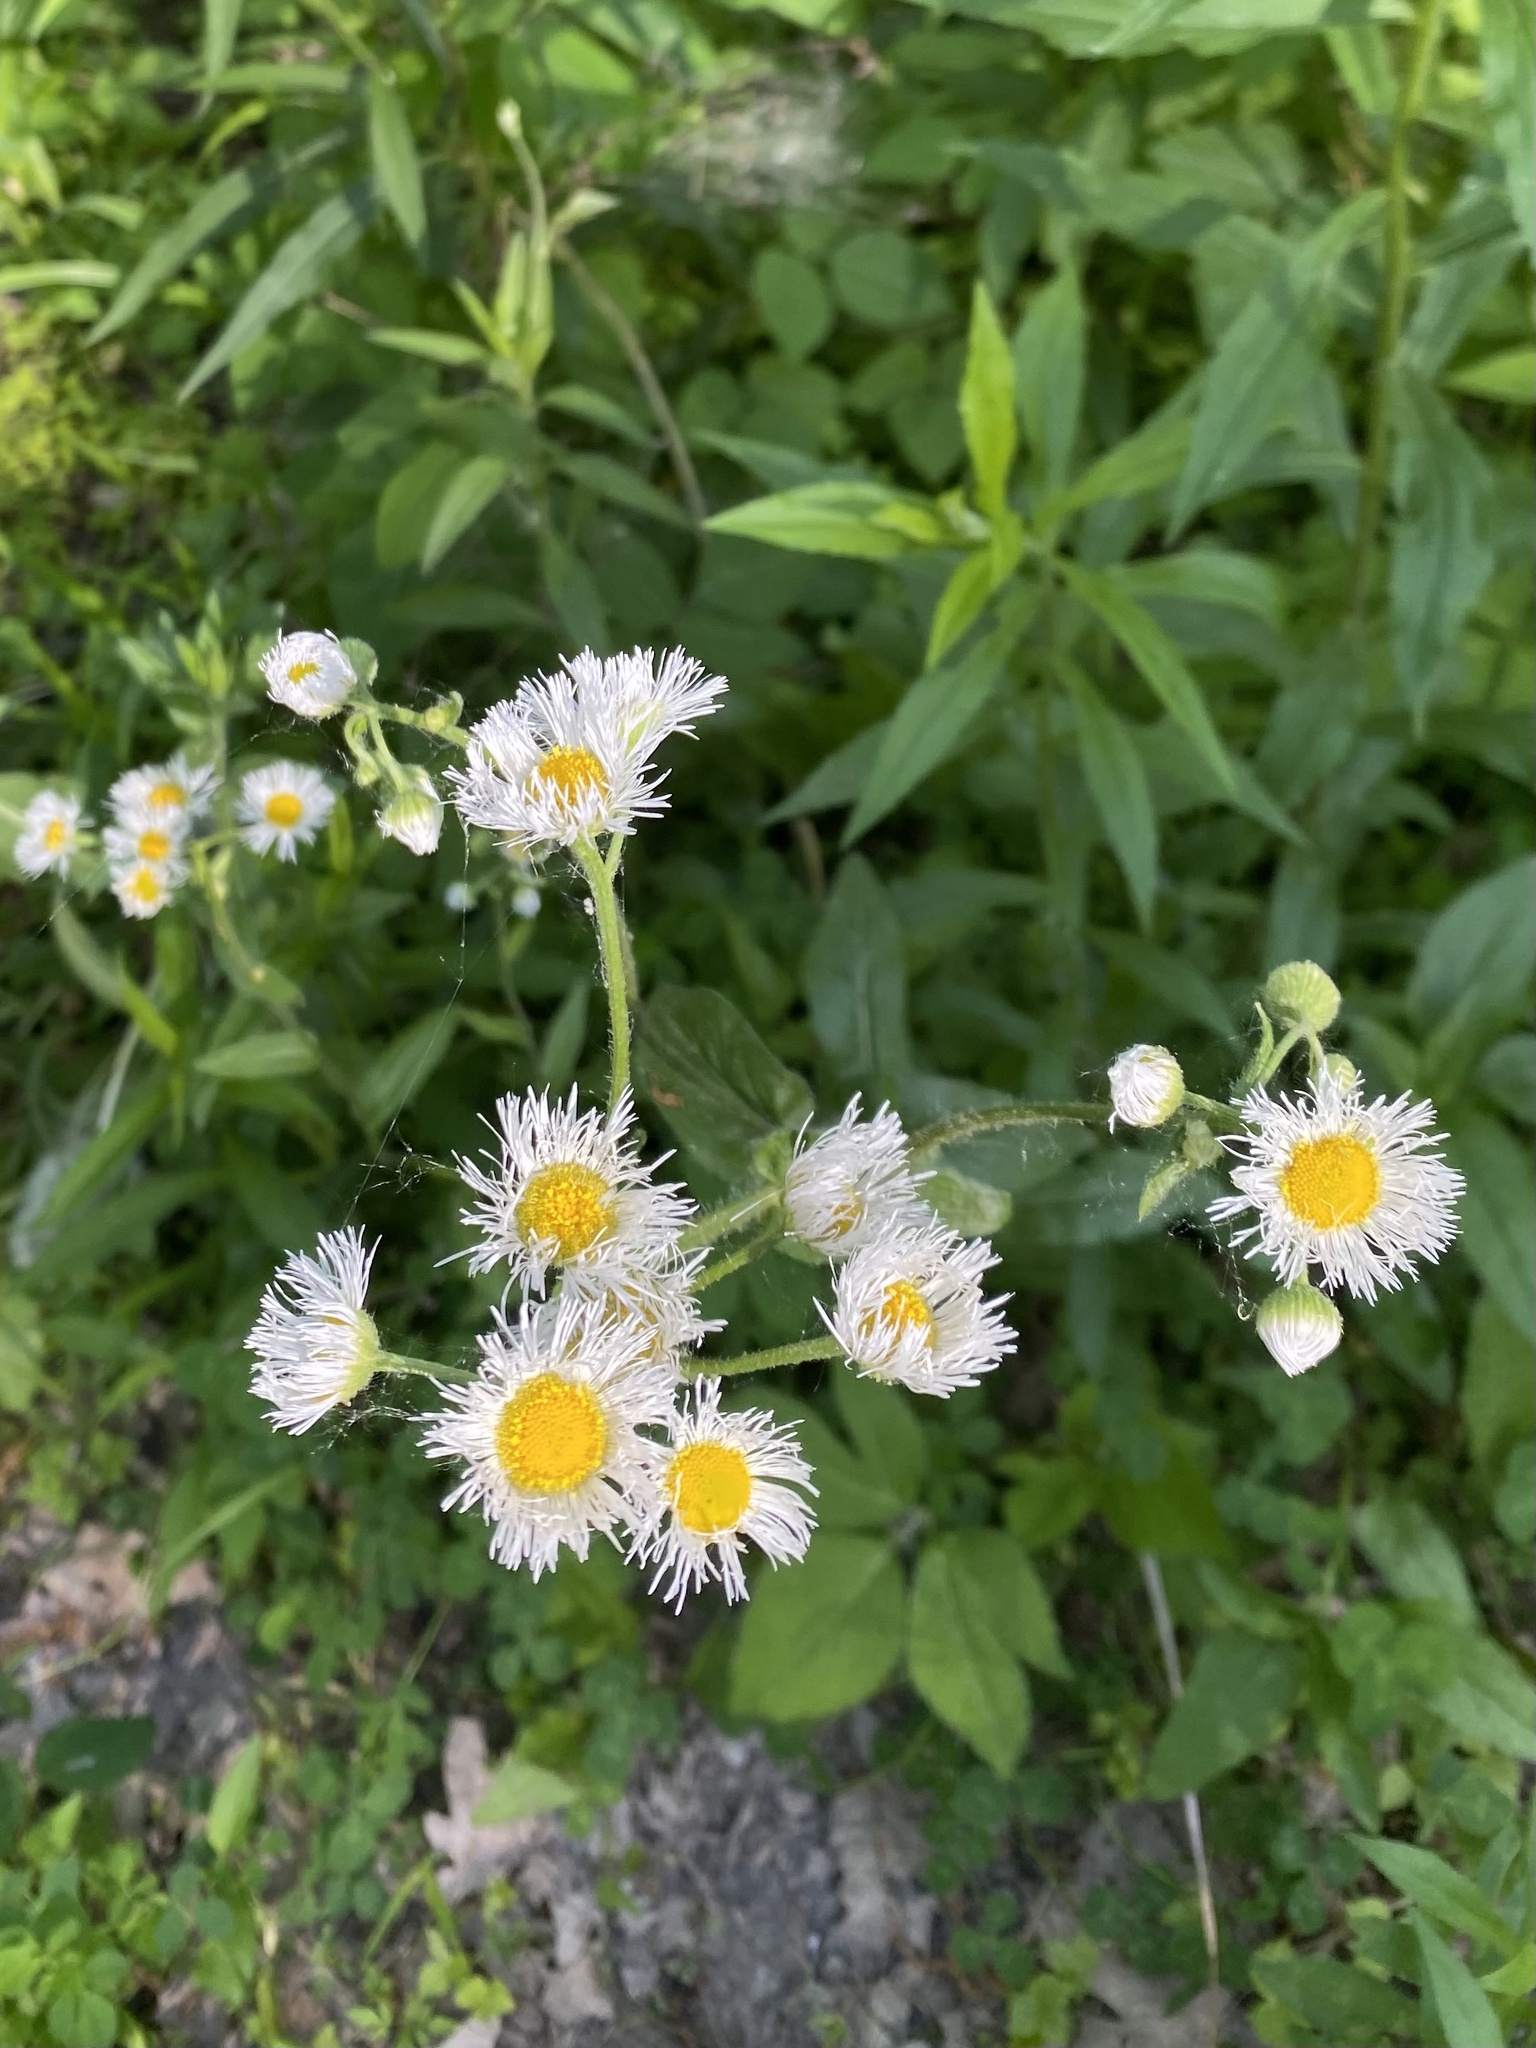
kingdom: Plantae
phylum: Tracheophyta
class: Magnoliopsida
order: Asterales
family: Asteraceae
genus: Erigeron
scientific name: Erigeron philadelphicus
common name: Robin's-plantain
